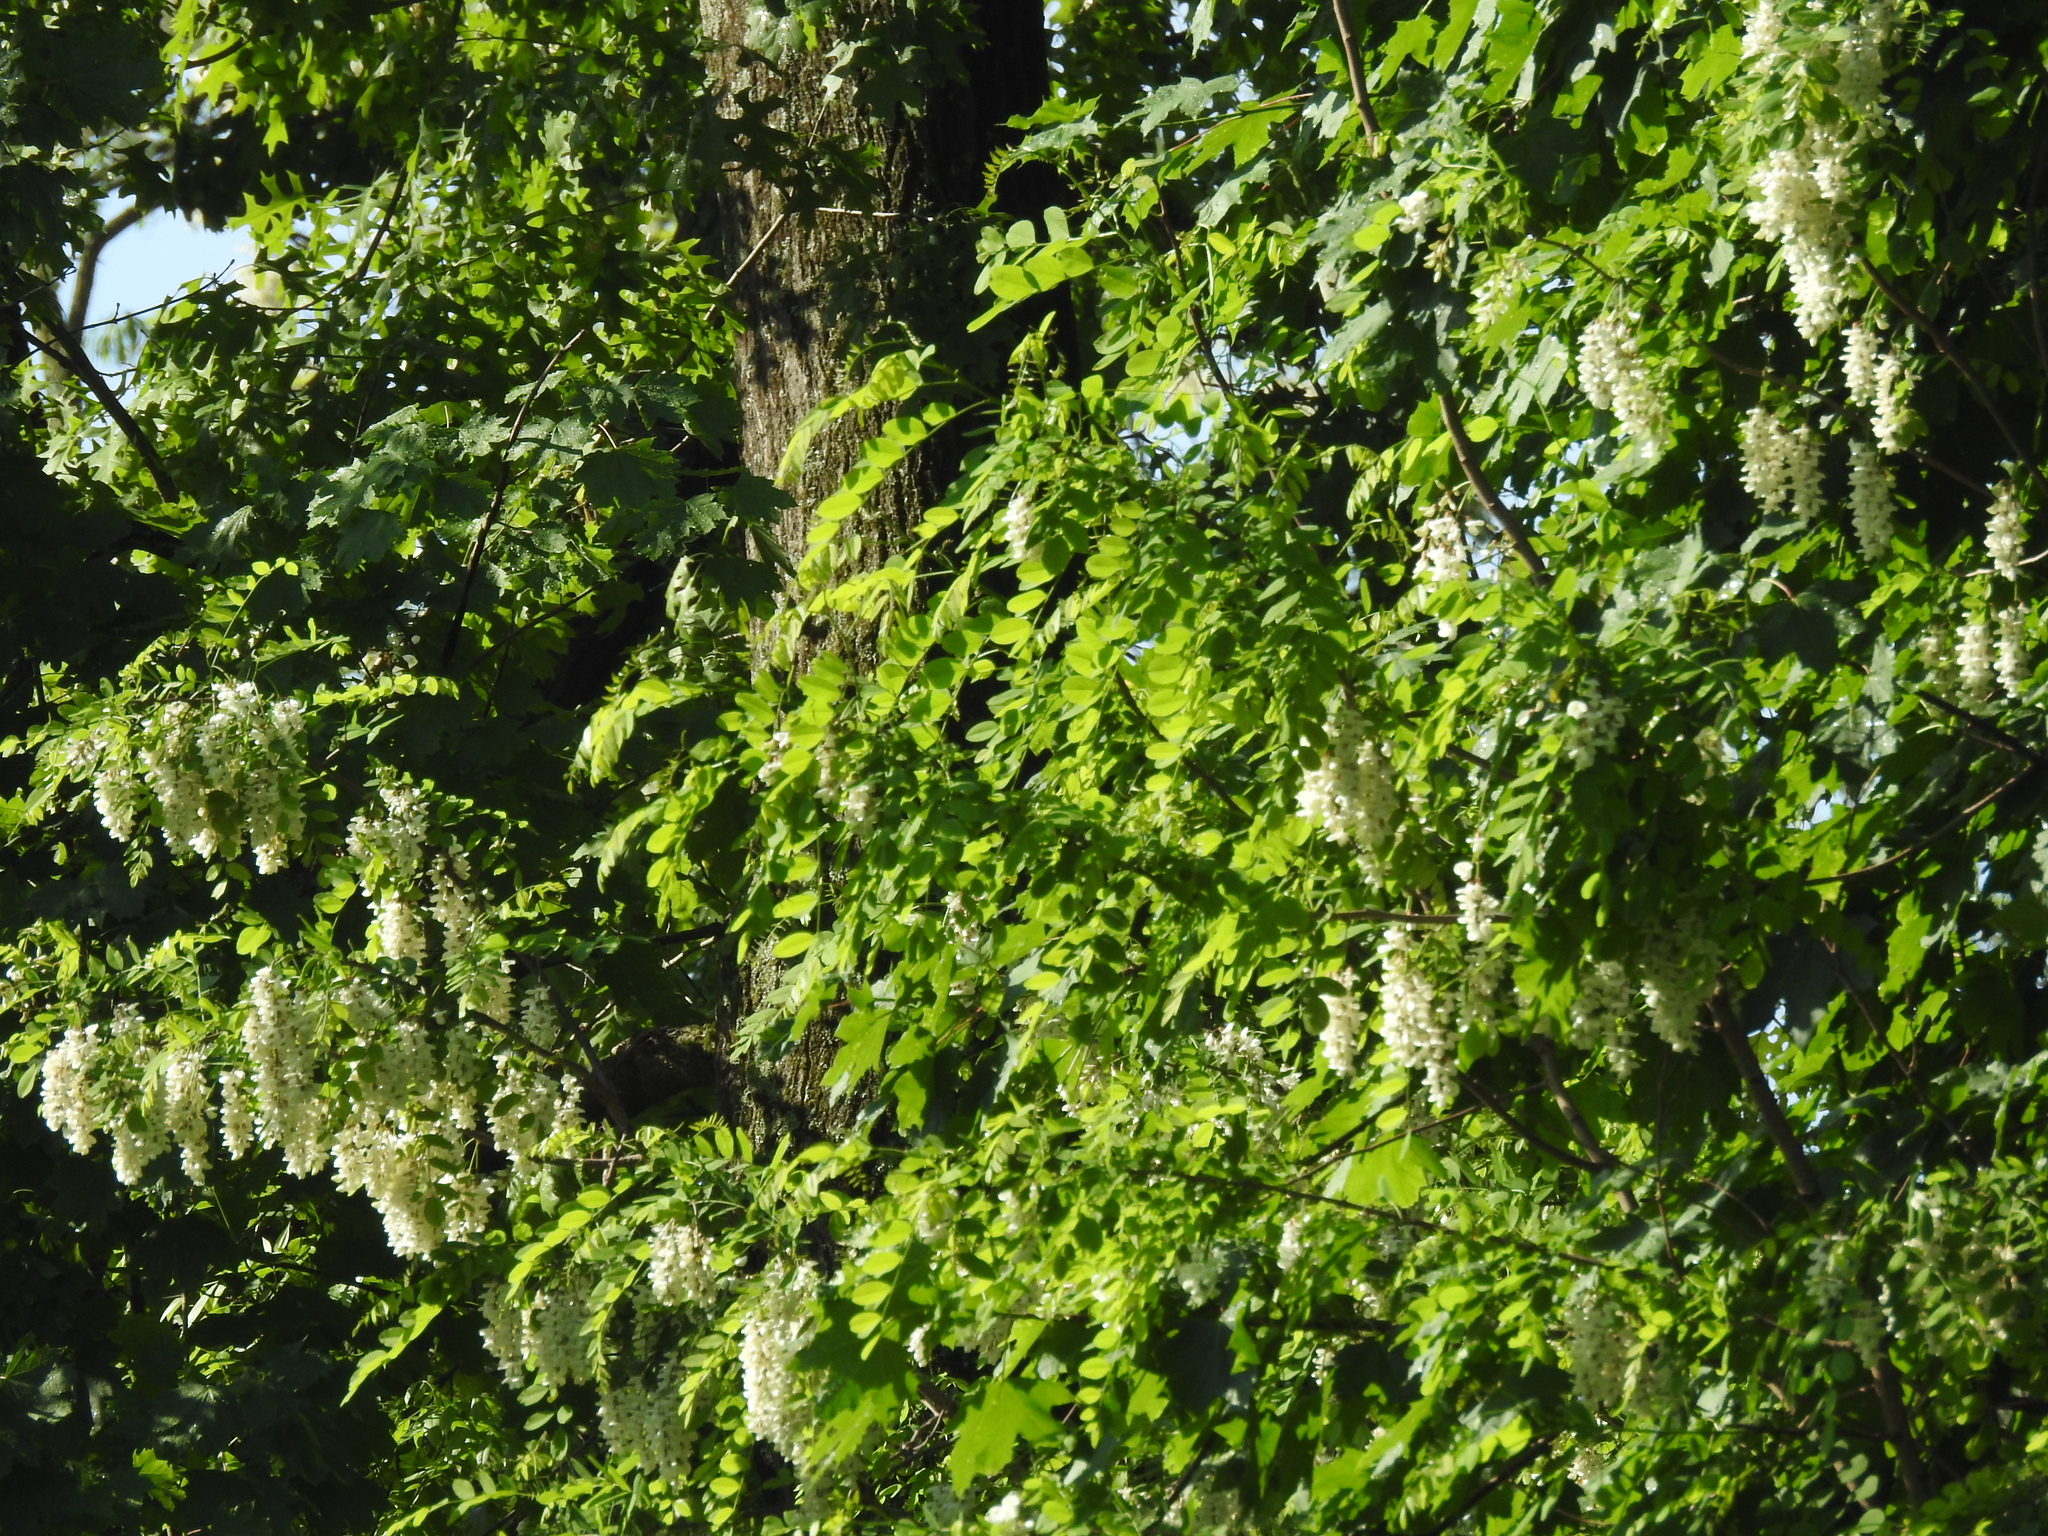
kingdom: Plantae
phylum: Tracheophyta
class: Magnoliopsida
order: Fabales
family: Fabaceae
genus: Robinia
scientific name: Robinia pseudoacacia
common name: Black locust
